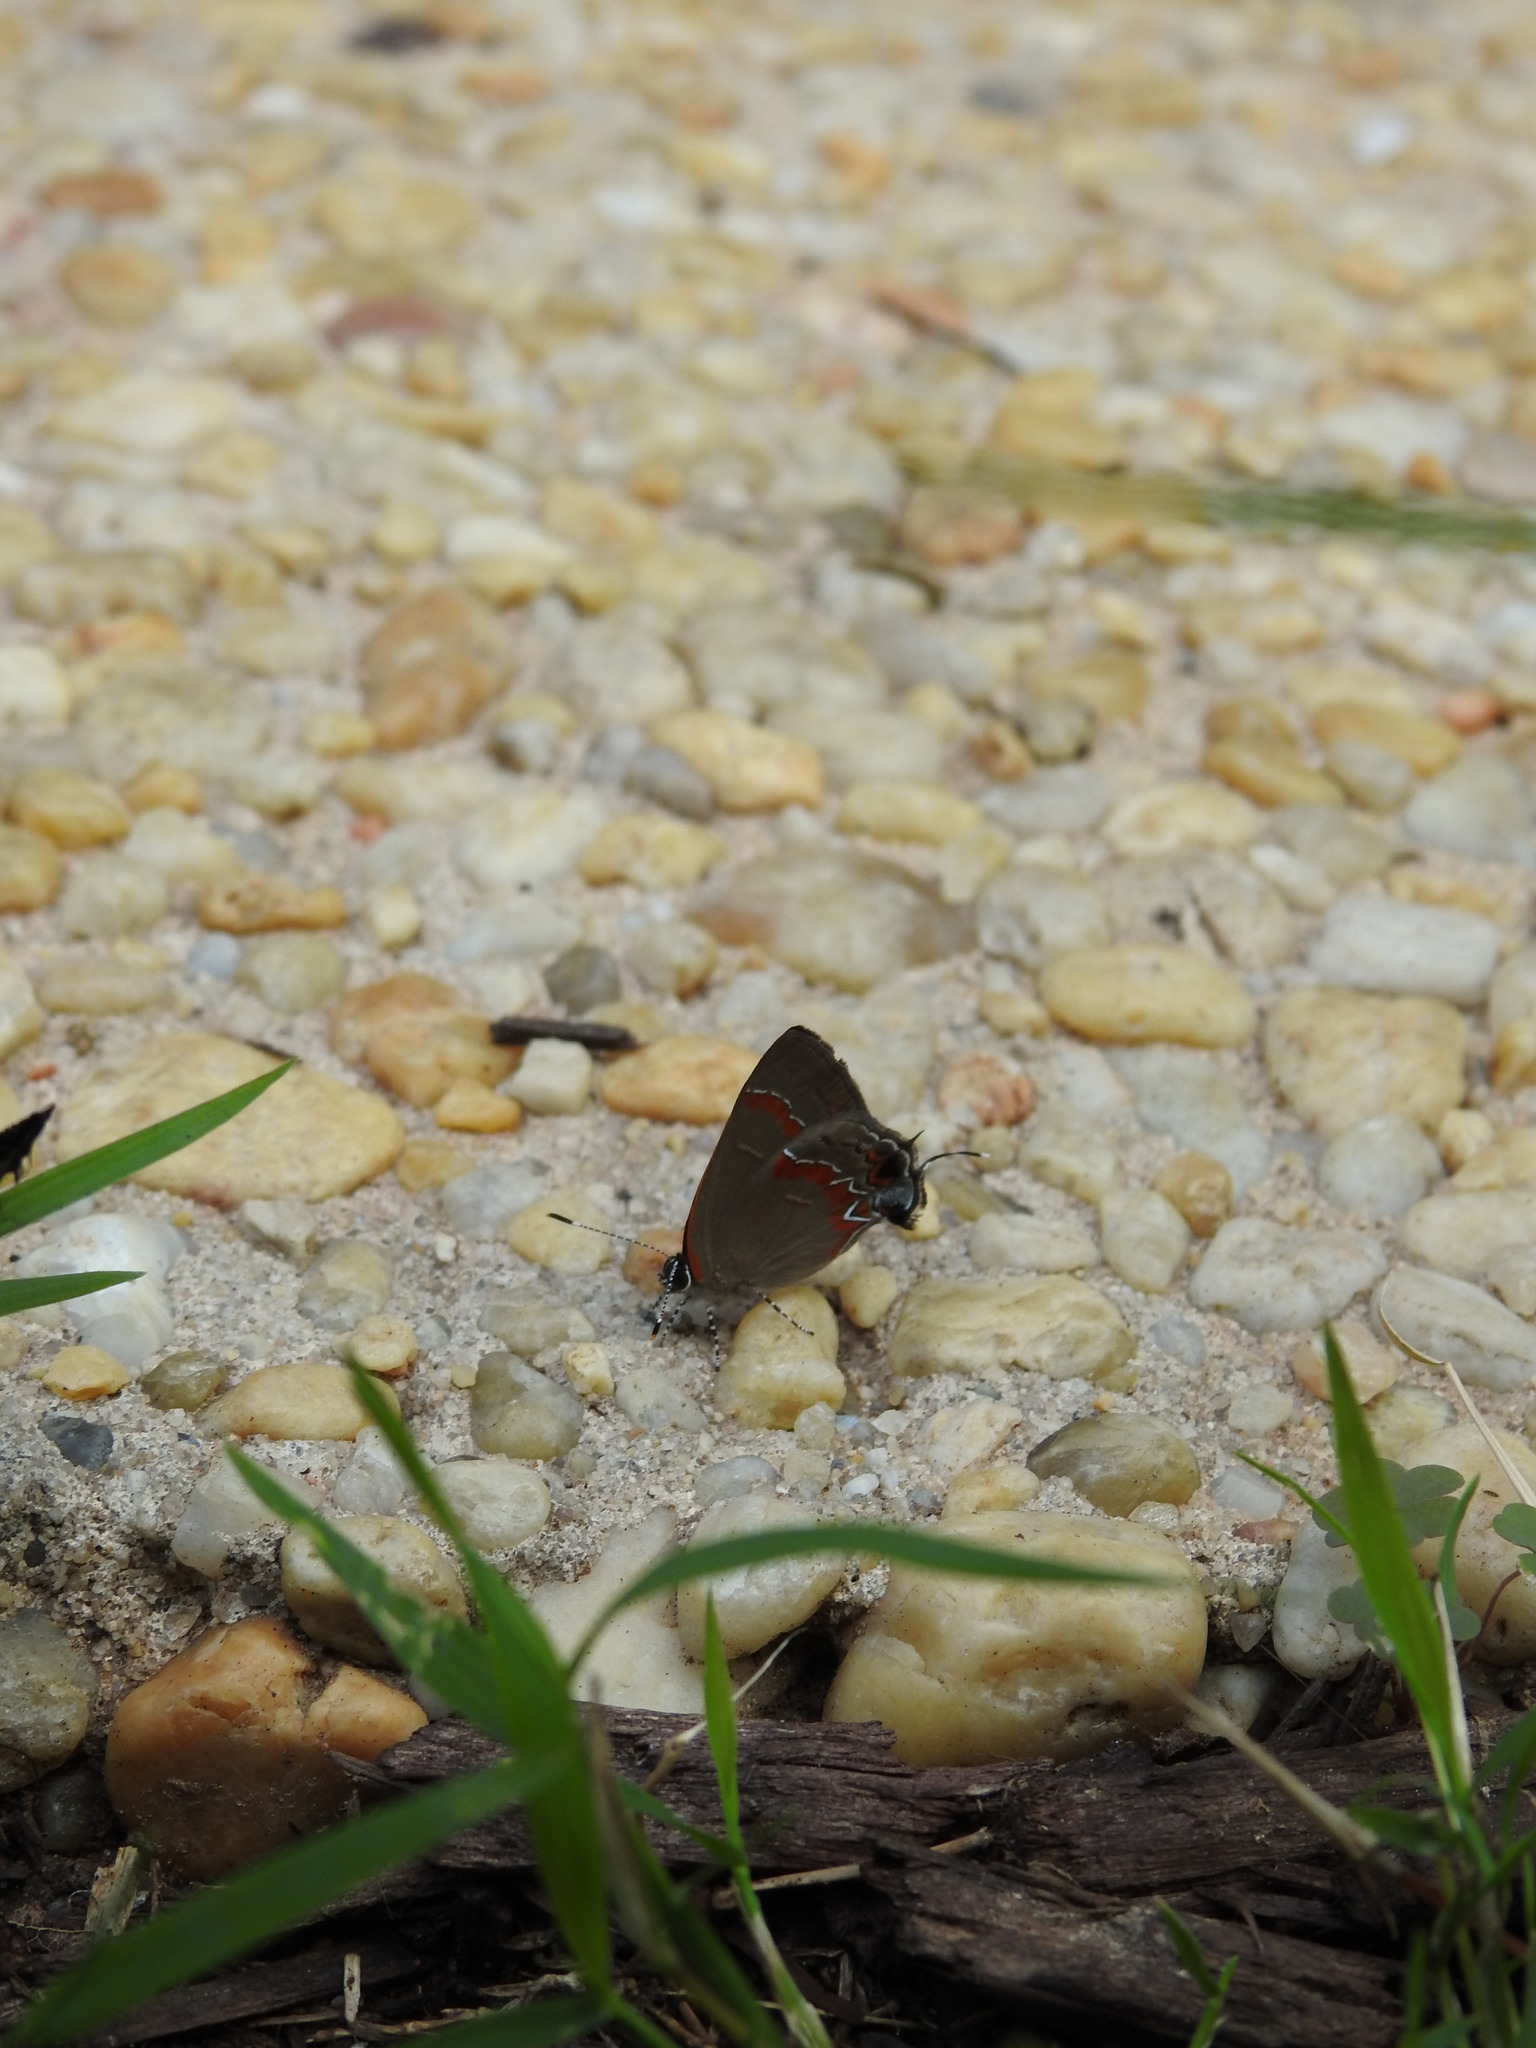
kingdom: Animalia
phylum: Arthropoda
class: Insecta
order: Lepidoptera
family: Lycaenidae
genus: Calycopis
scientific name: Calycopis cecrops
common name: Red-banded hairstreak
